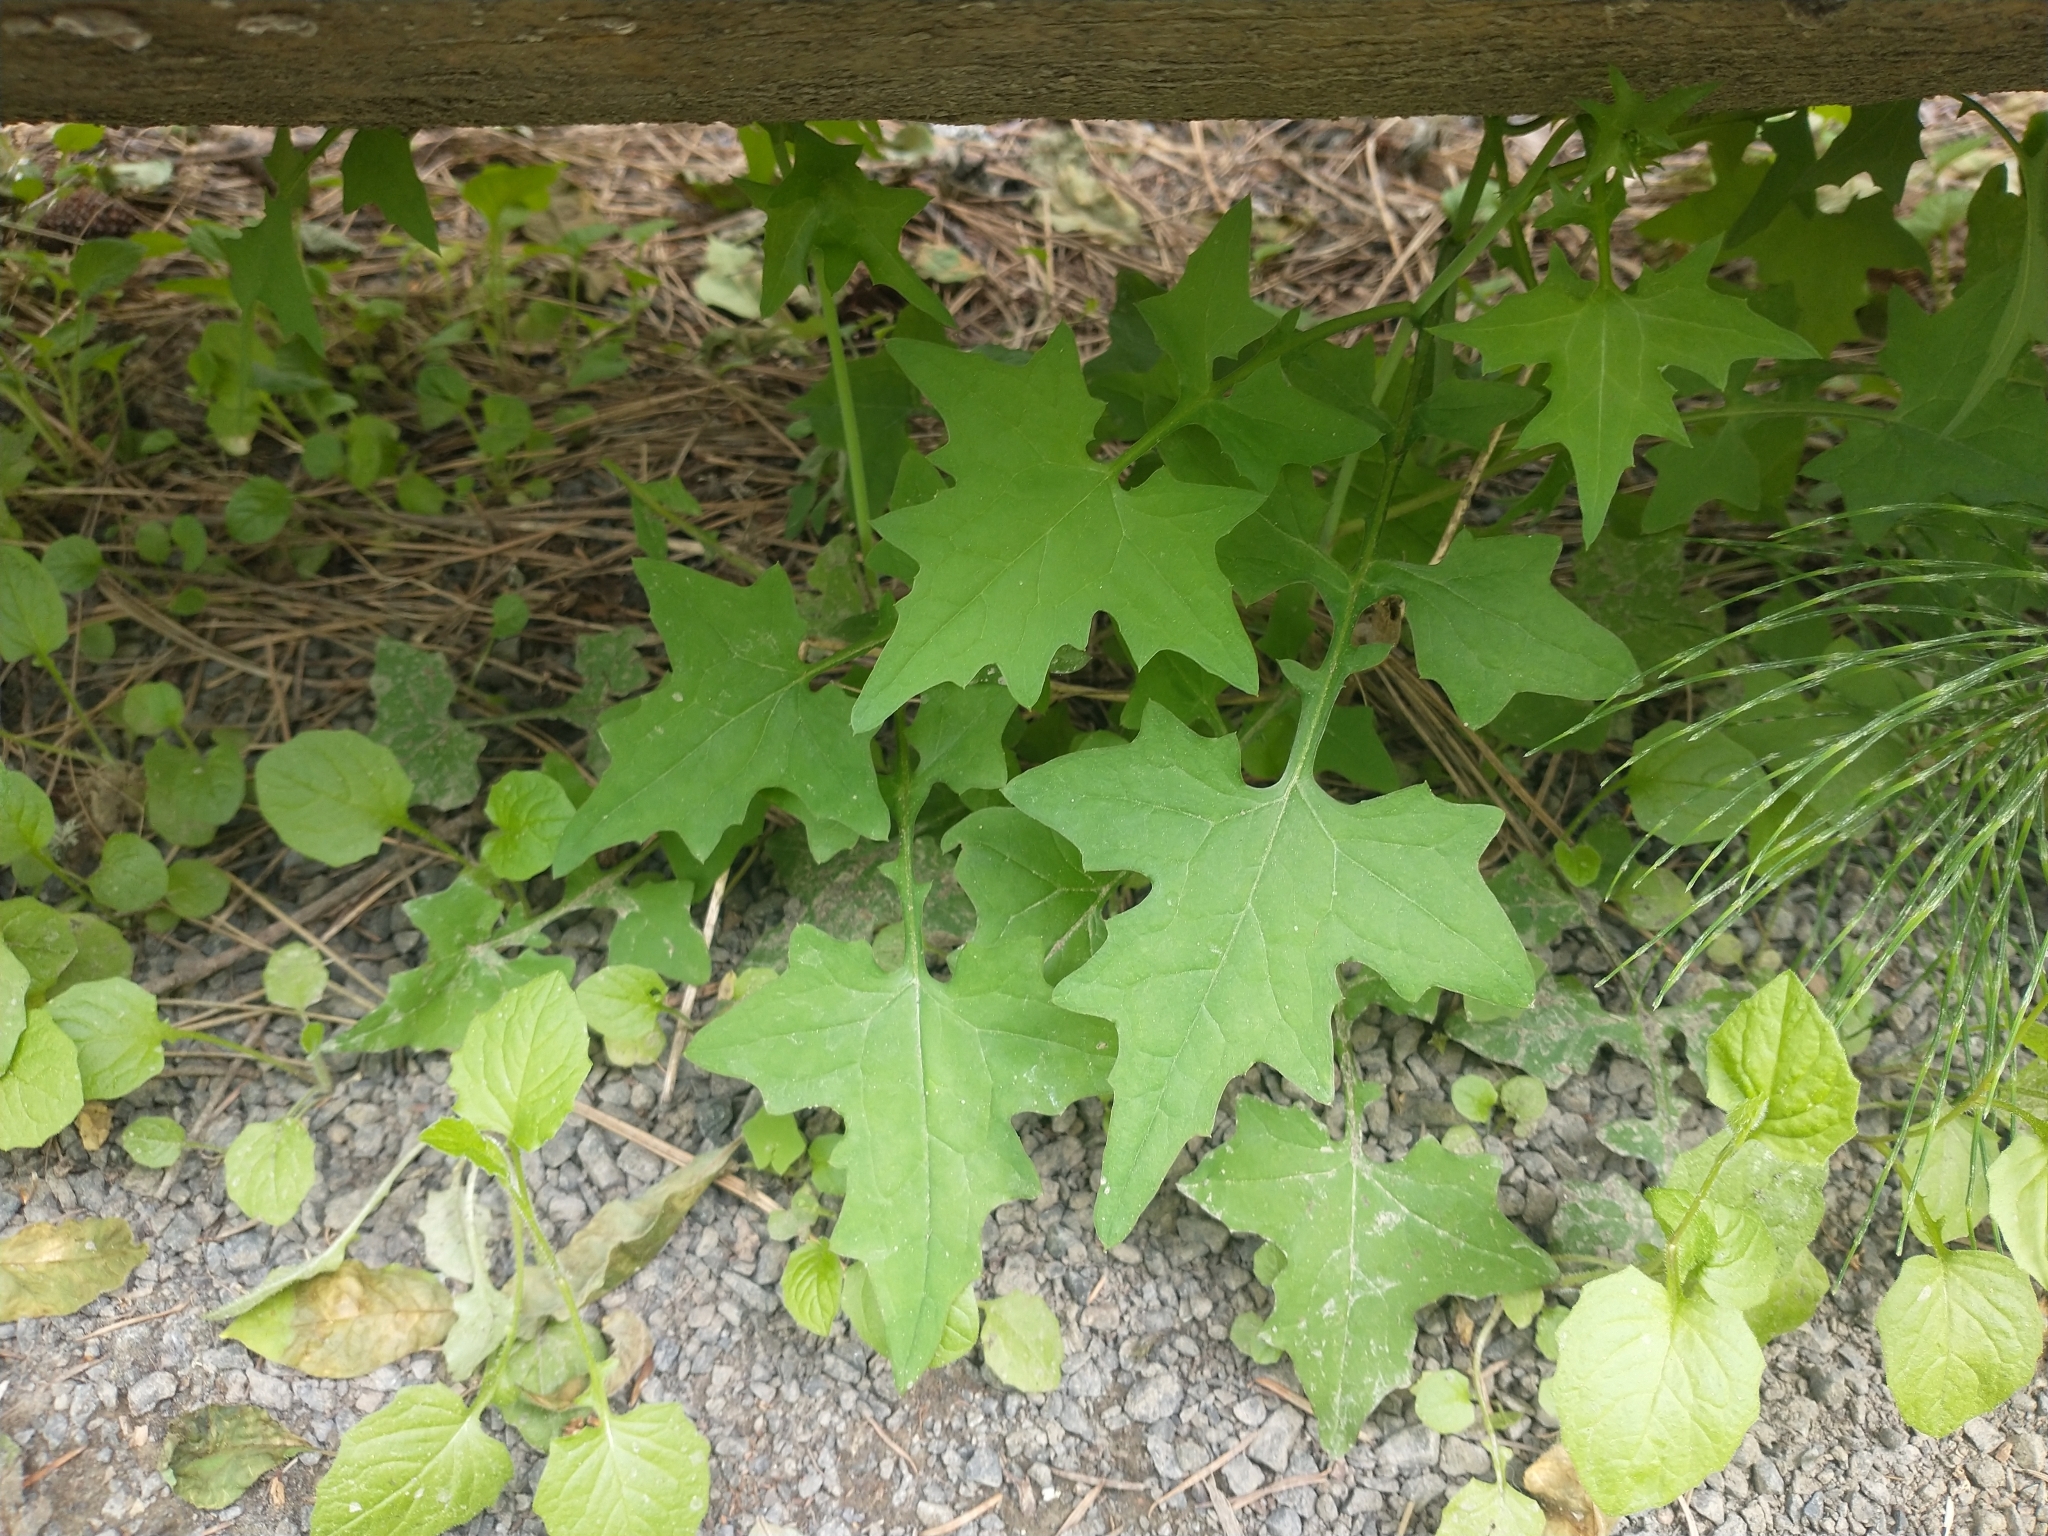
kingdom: Plantae
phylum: Tracheophyta
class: Magnoliopsida
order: Asterales
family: Asteraceae
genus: Mycelis
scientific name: Mycelis muralis
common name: Wall lettuce
